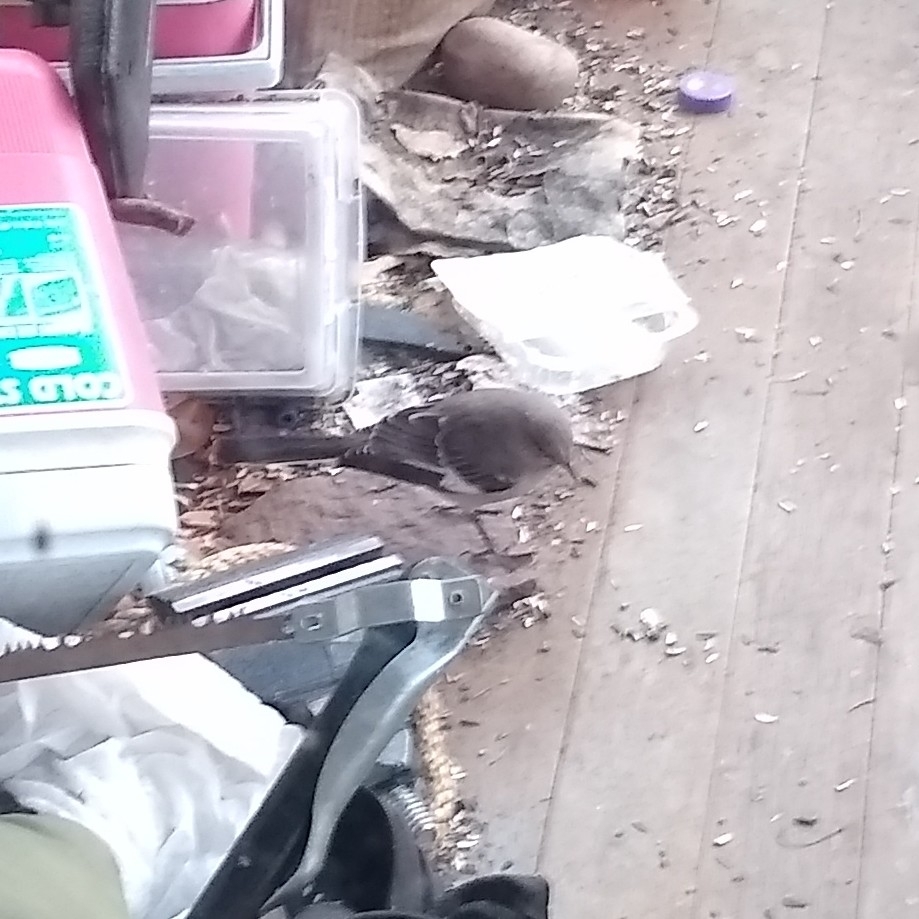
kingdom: Animalia
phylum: Chordata
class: Aves
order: Passeriformes
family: Mimidae
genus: Mimus
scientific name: Mimus polyglottos
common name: Northern mockingbird
